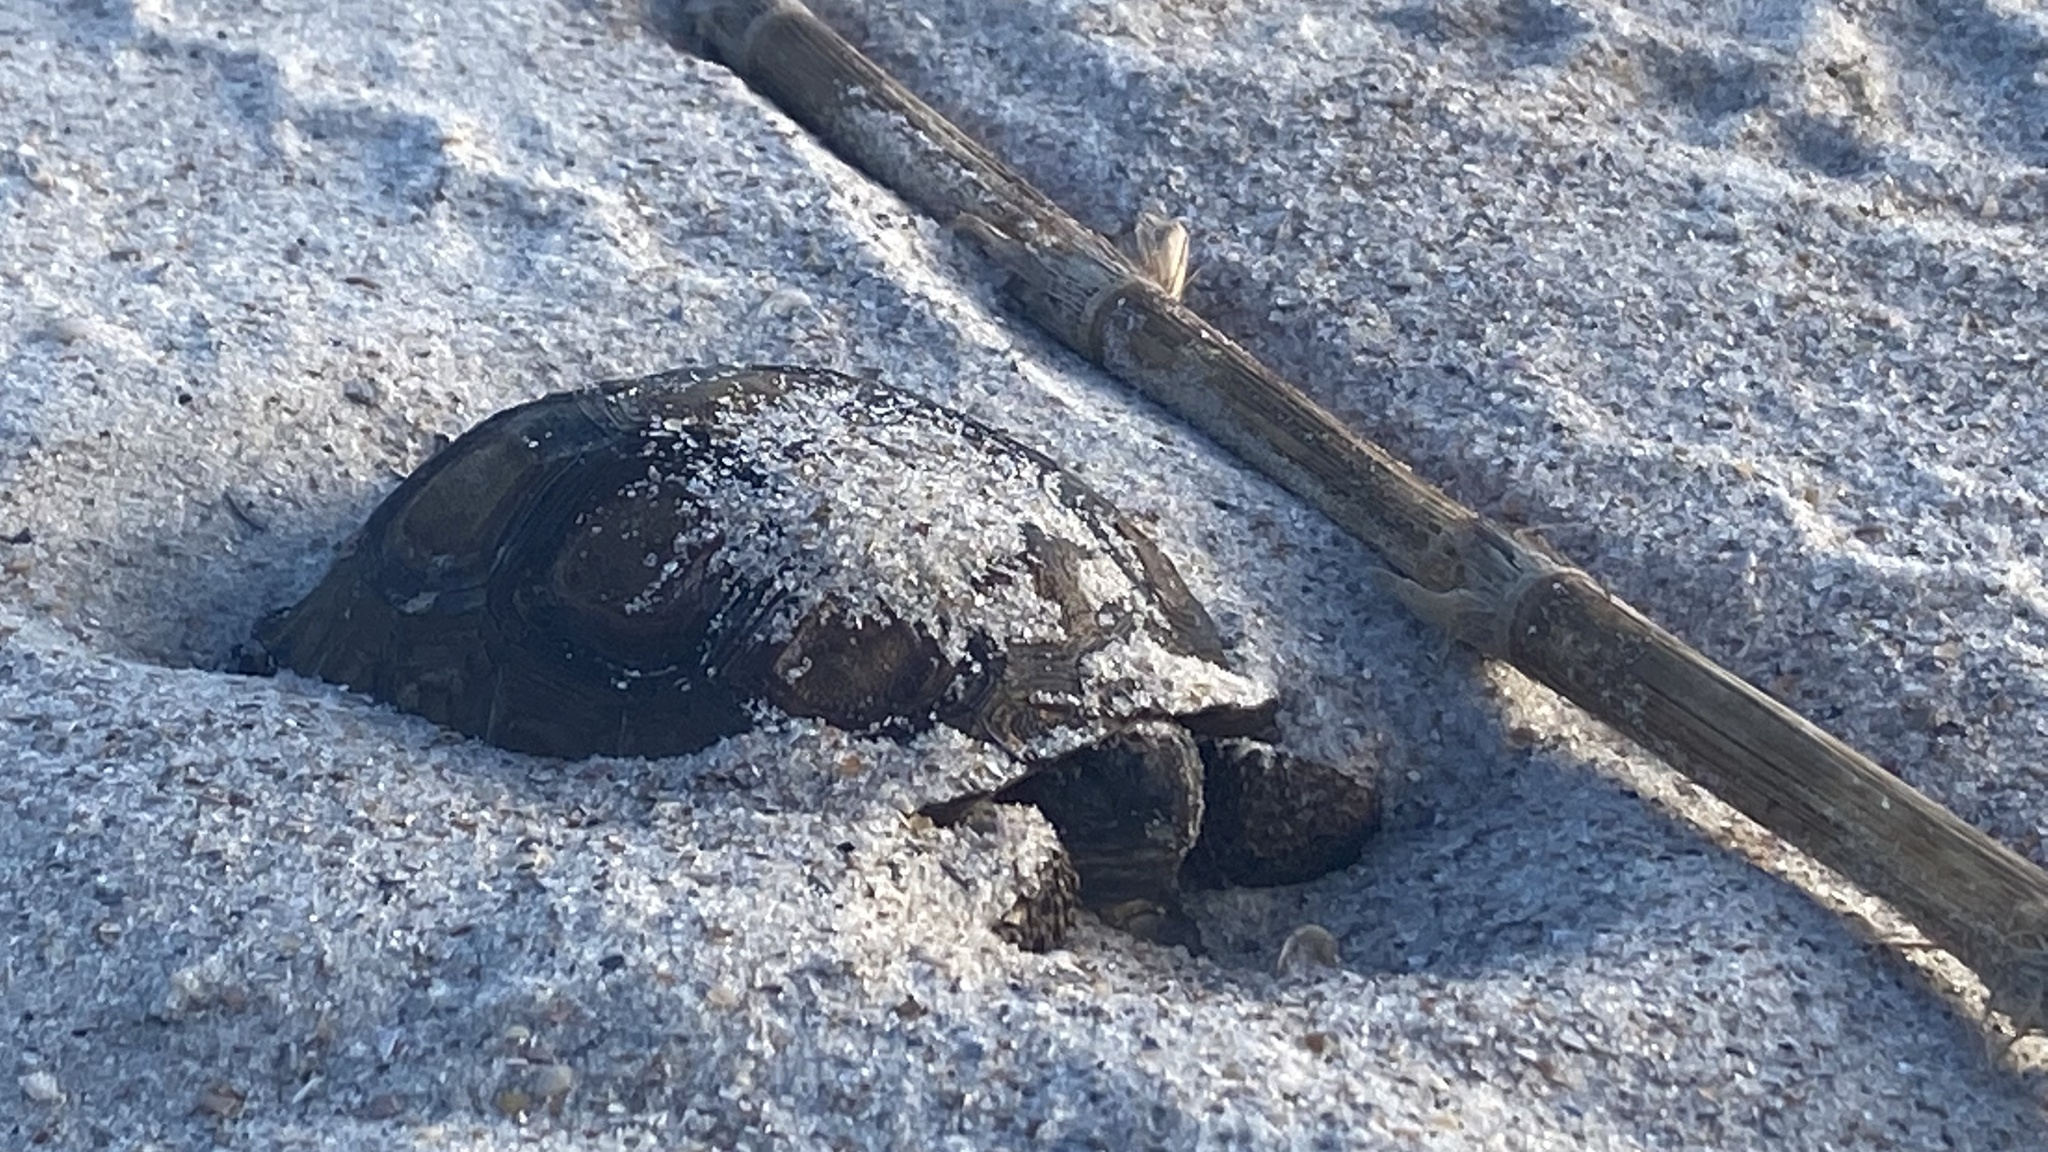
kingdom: Animalia
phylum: Chordata
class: Testudines
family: Testudinidae
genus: Gopherus
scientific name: Gopherus polyphemus
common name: Florida gopher tortoise
